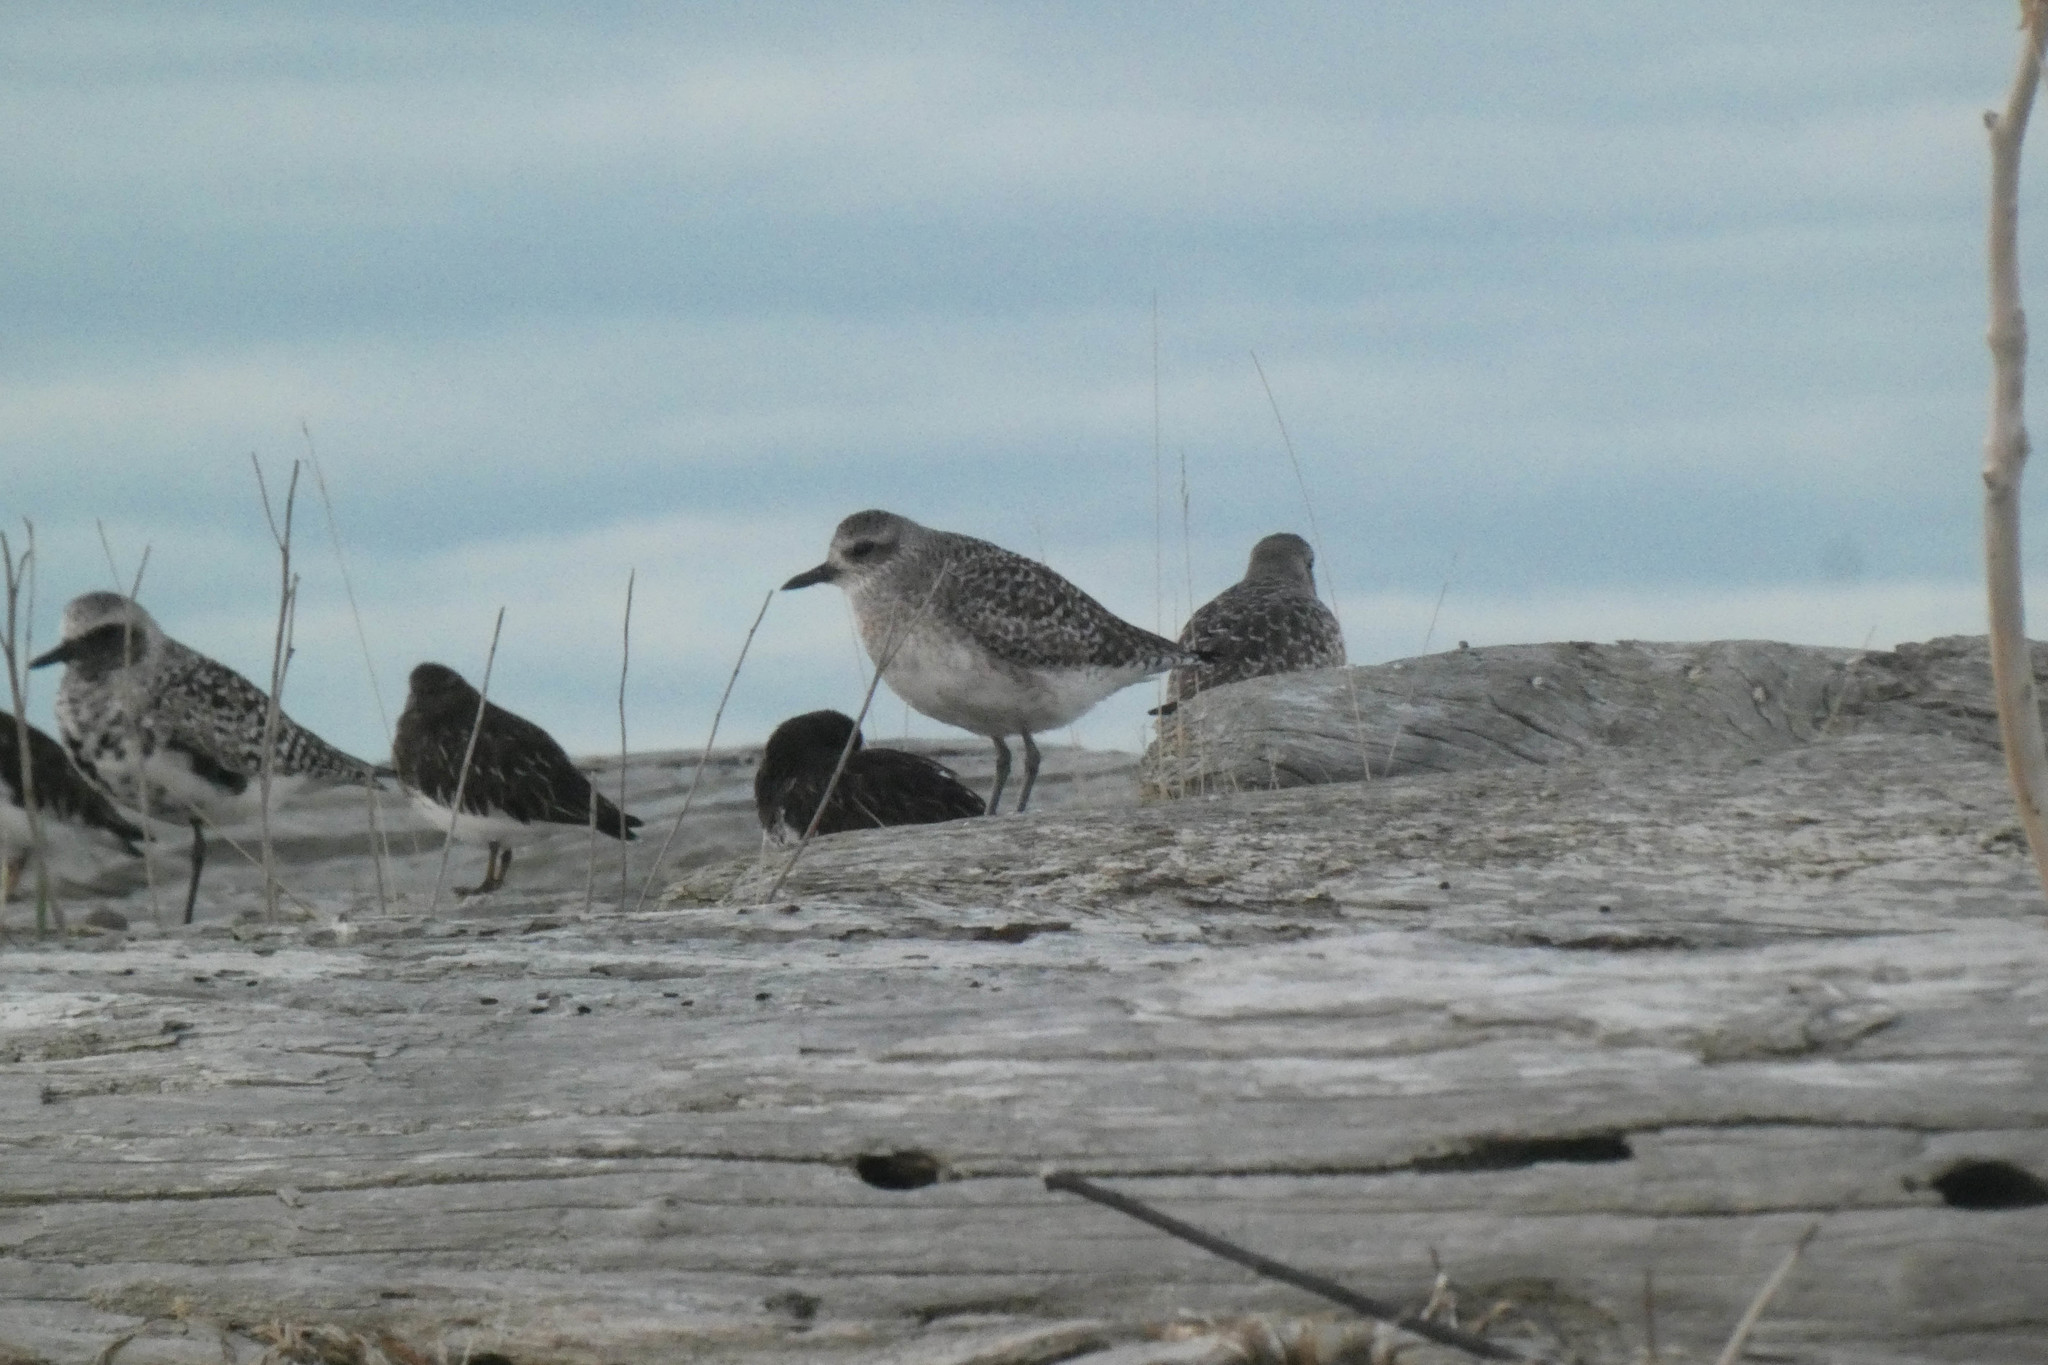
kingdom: Animalia
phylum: Chordata
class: Aves
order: Charadriiformes
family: Charadriidae
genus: Pluvialis
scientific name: Pluvialis squatarola
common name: Grey plover
